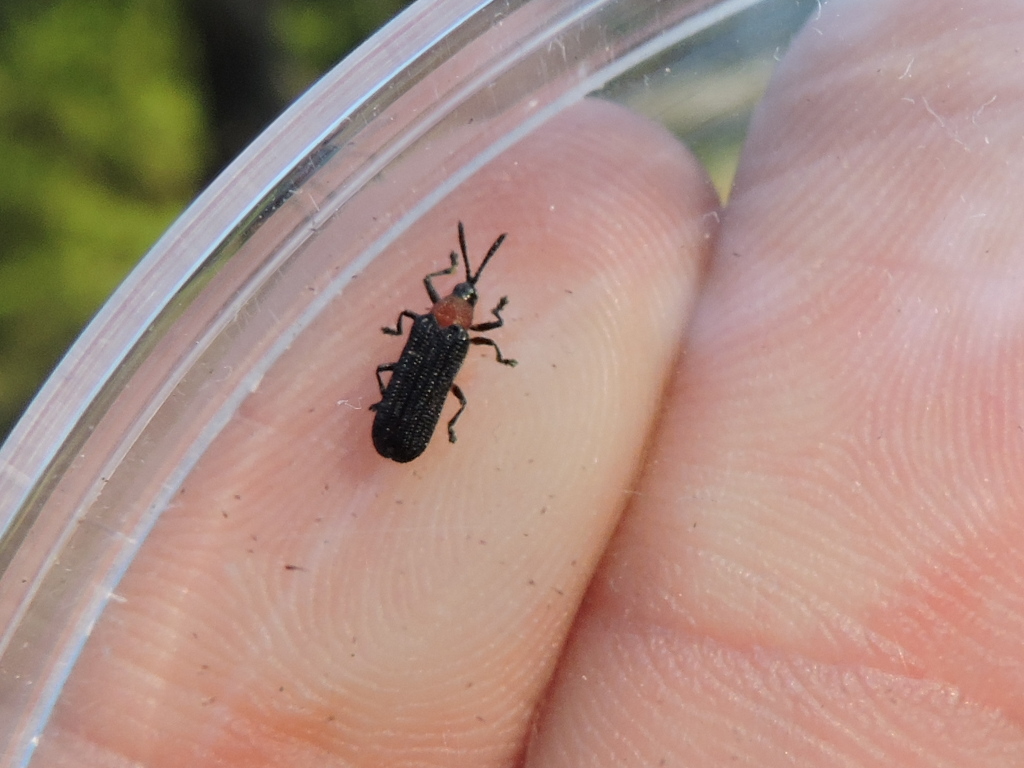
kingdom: Animalia
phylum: Arthropoda
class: Insecta
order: Coleoptera
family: Chrysomelidae
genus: Chalepus
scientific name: Chalepus bicolor
